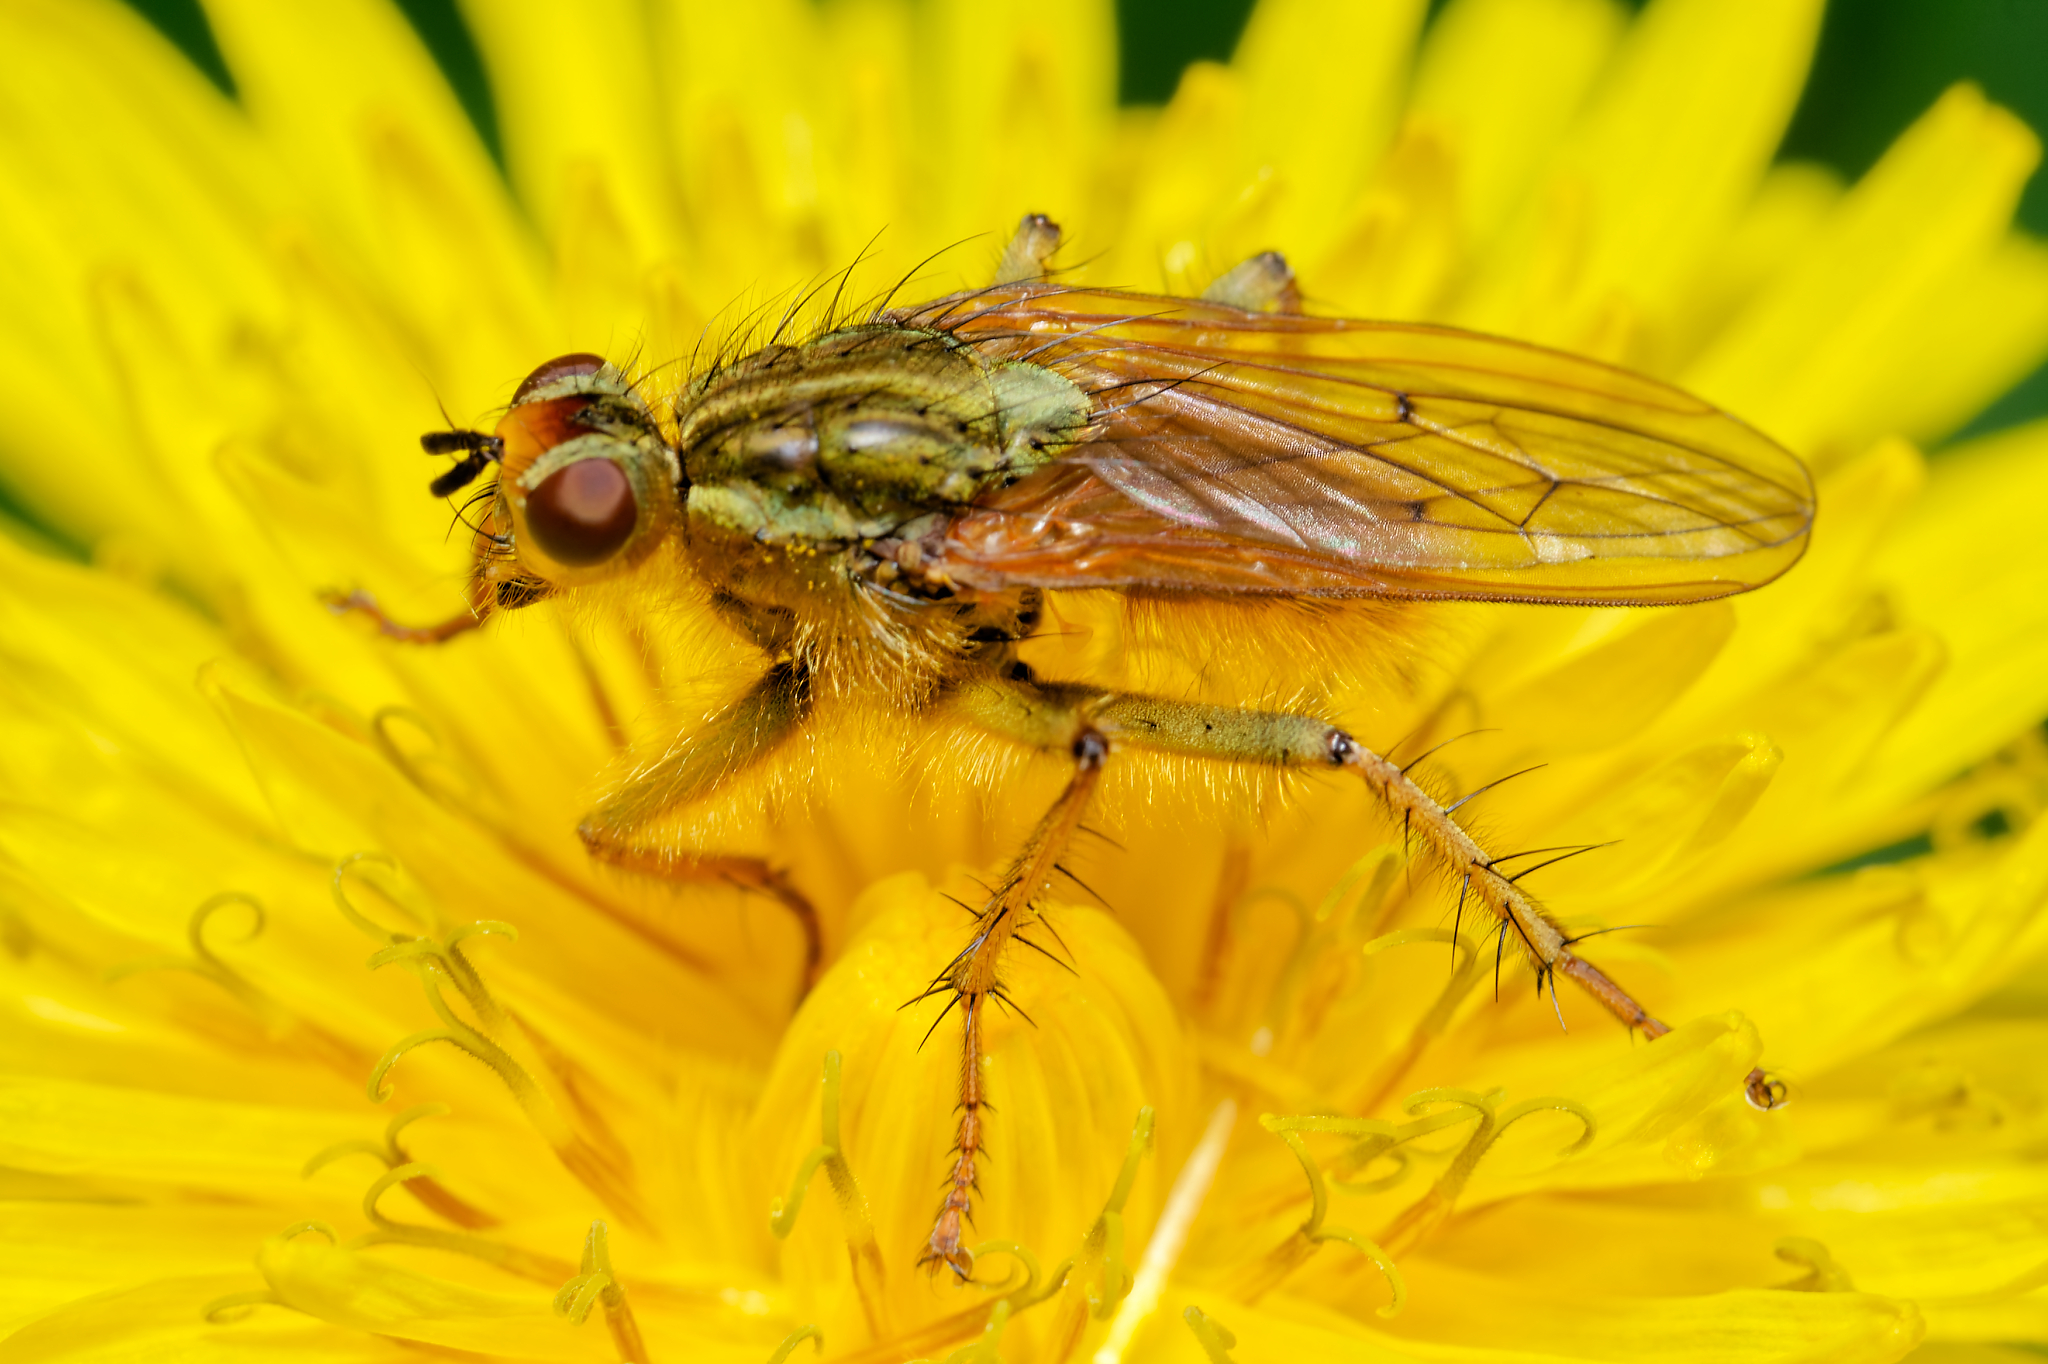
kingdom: Animalia
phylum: Arthropoda
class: Insecta
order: Diptera
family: Scathophagidae
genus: Scathophaga
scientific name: Scathophaga stercoraria
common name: Yellow dung fly
